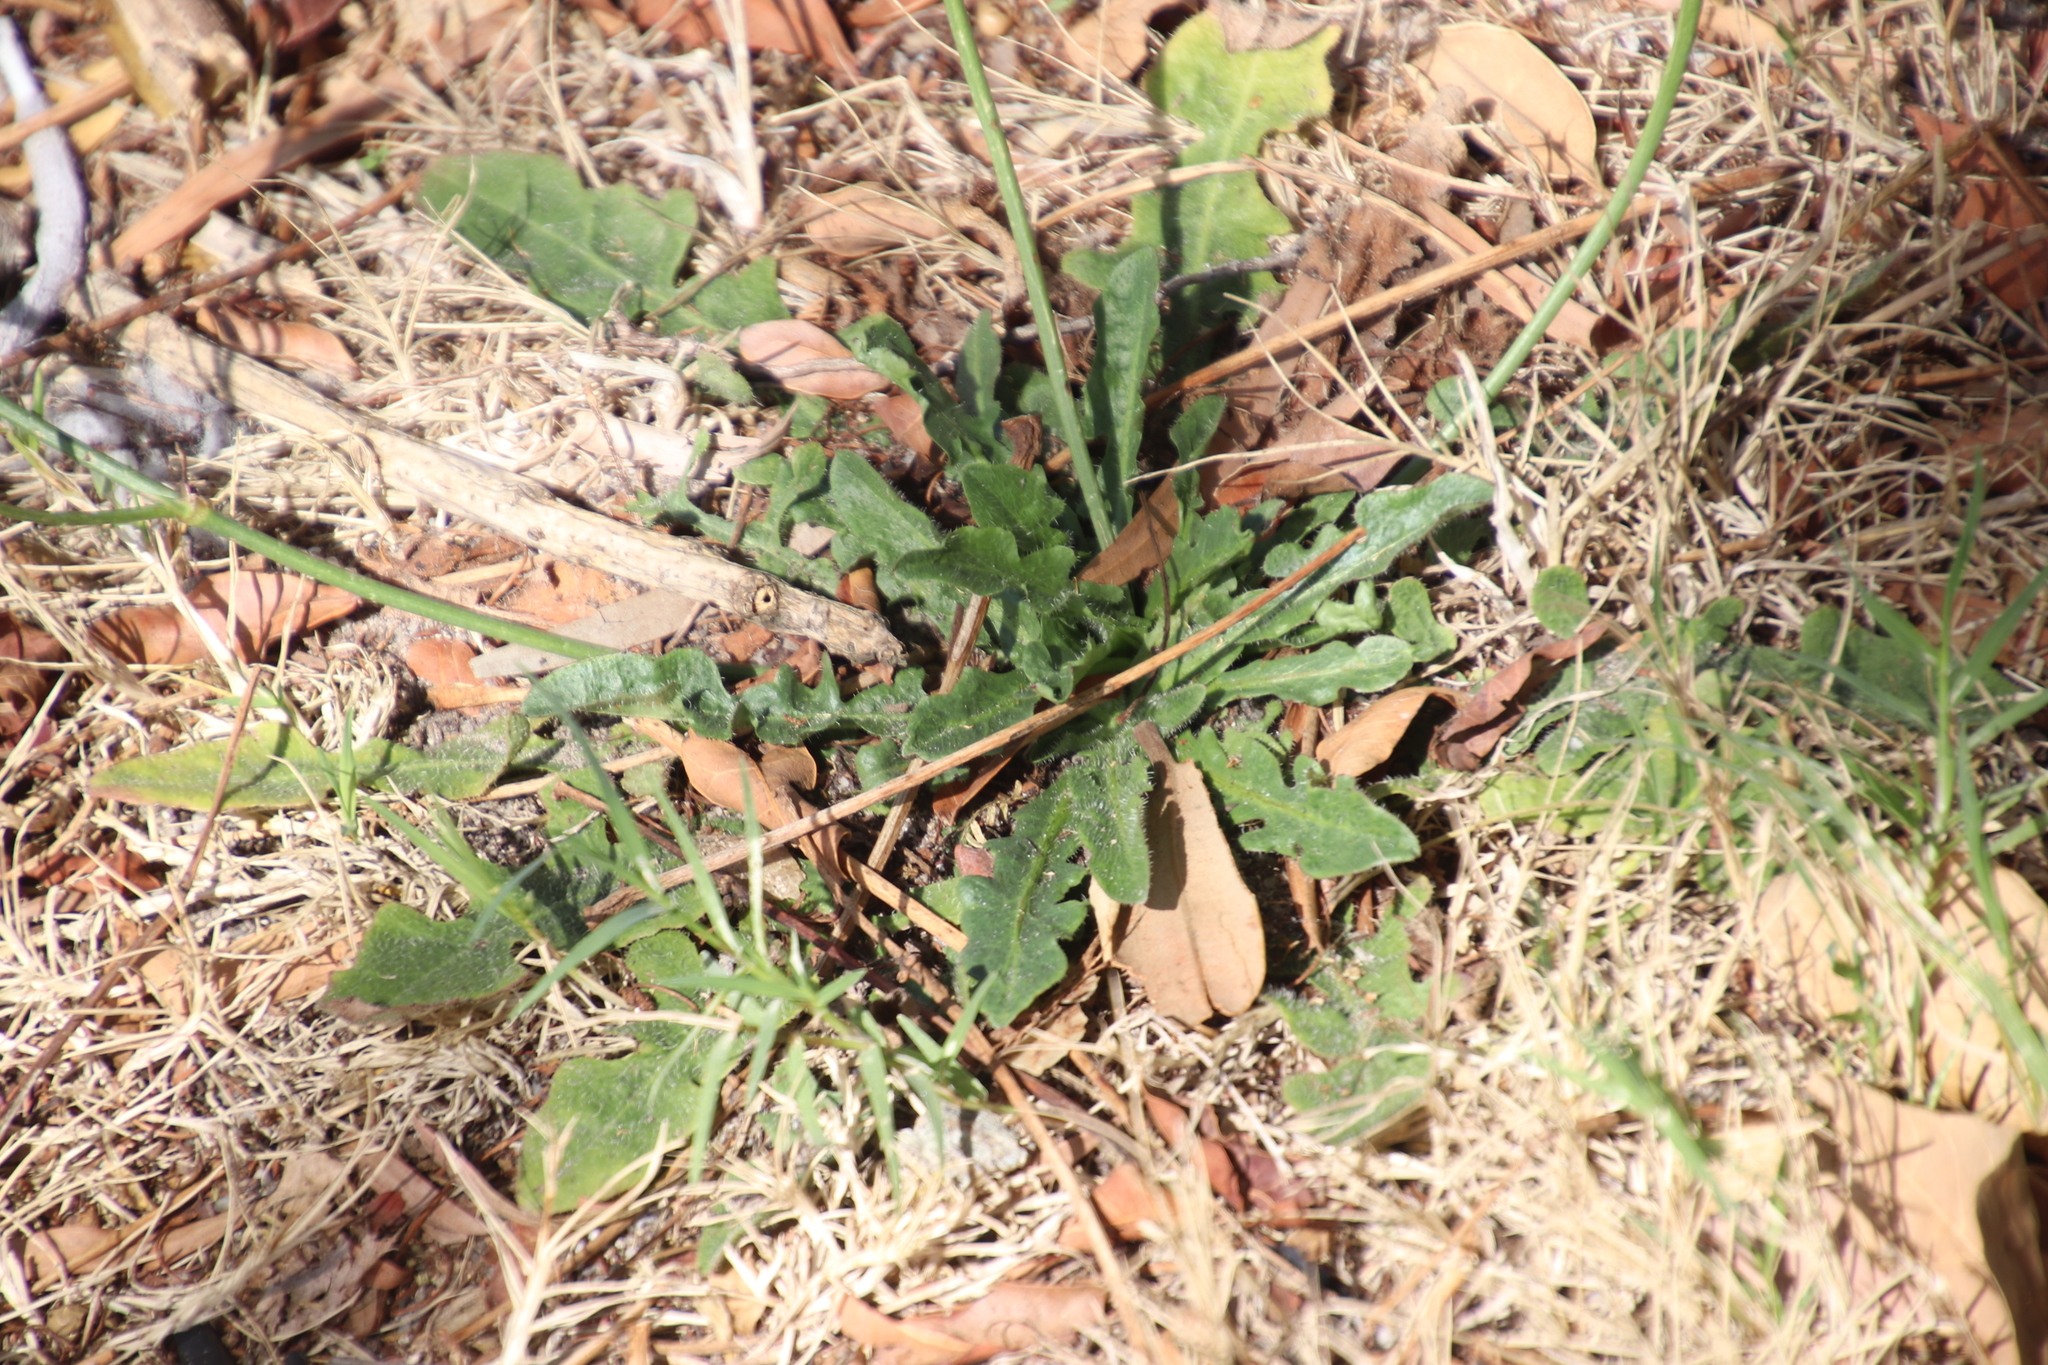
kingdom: Plantae
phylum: Tracheophyta
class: Magnoliopsida
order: Asterales
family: Asteraceae
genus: Hypochaeris
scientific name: Hypochaeris radicata
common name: Flatweed
